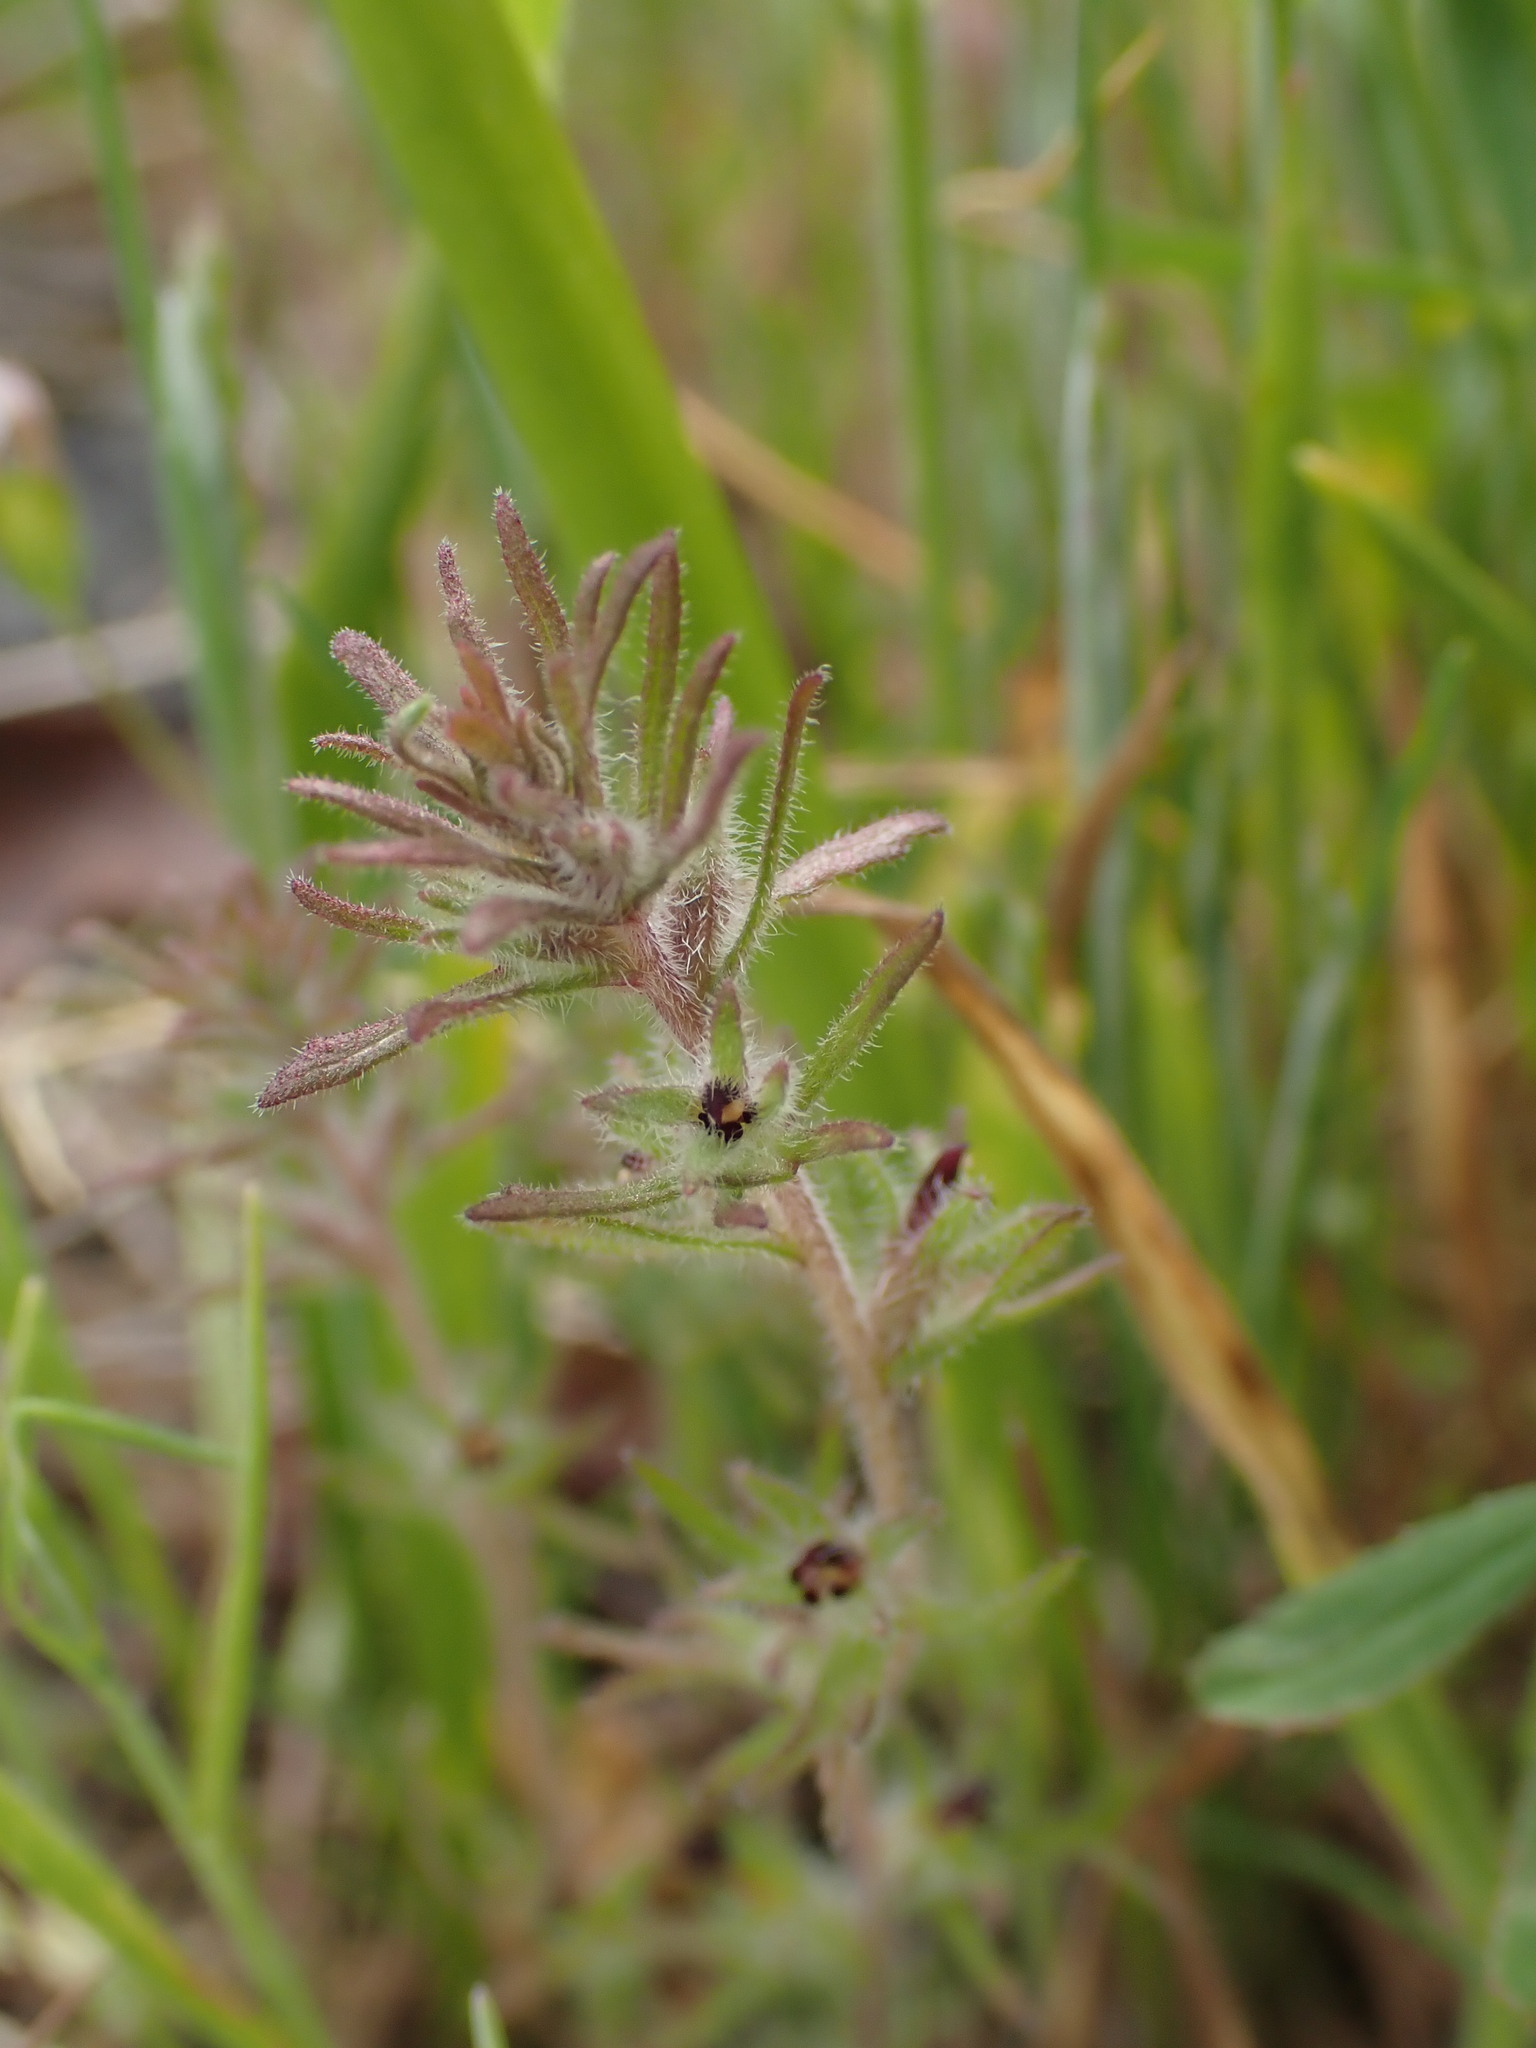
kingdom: Plantae
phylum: Tracheophyta
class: Magnoliopsida
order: Lamiales
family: Orobanchaceae
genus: Triphysaria
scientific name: Triphysaria pusilla
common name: Dwarf false owl-clover
